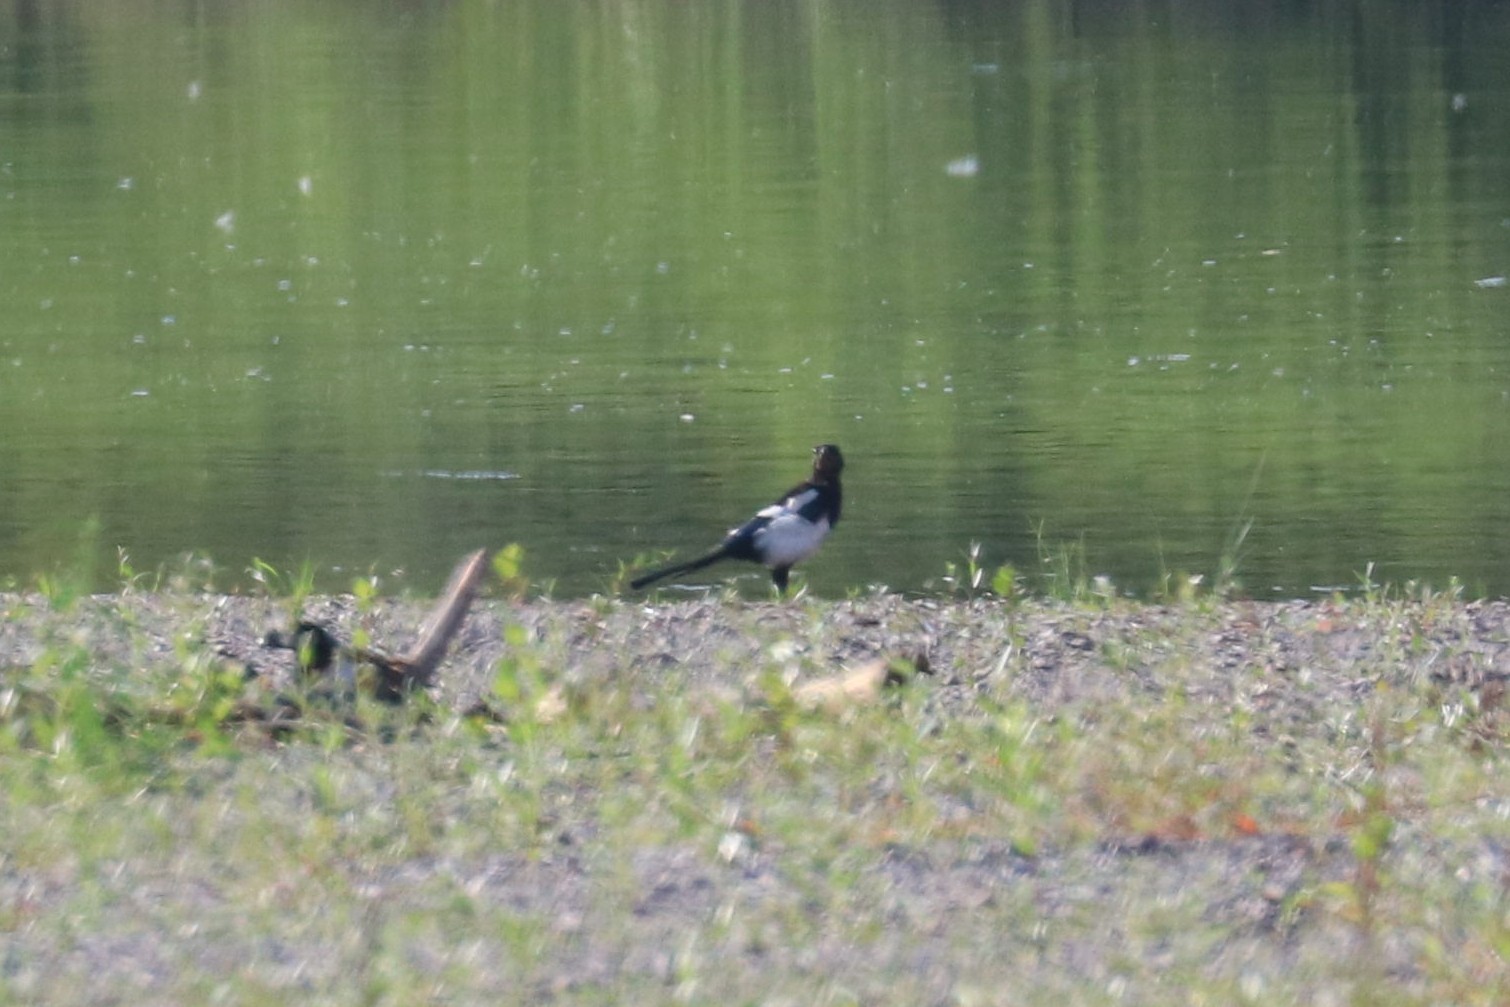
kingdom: Animalia
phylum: Chordata
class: Aves
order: Passeriformes
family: Corvidae
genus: Pica
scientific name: Pica pica
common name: Eurasian magpie
